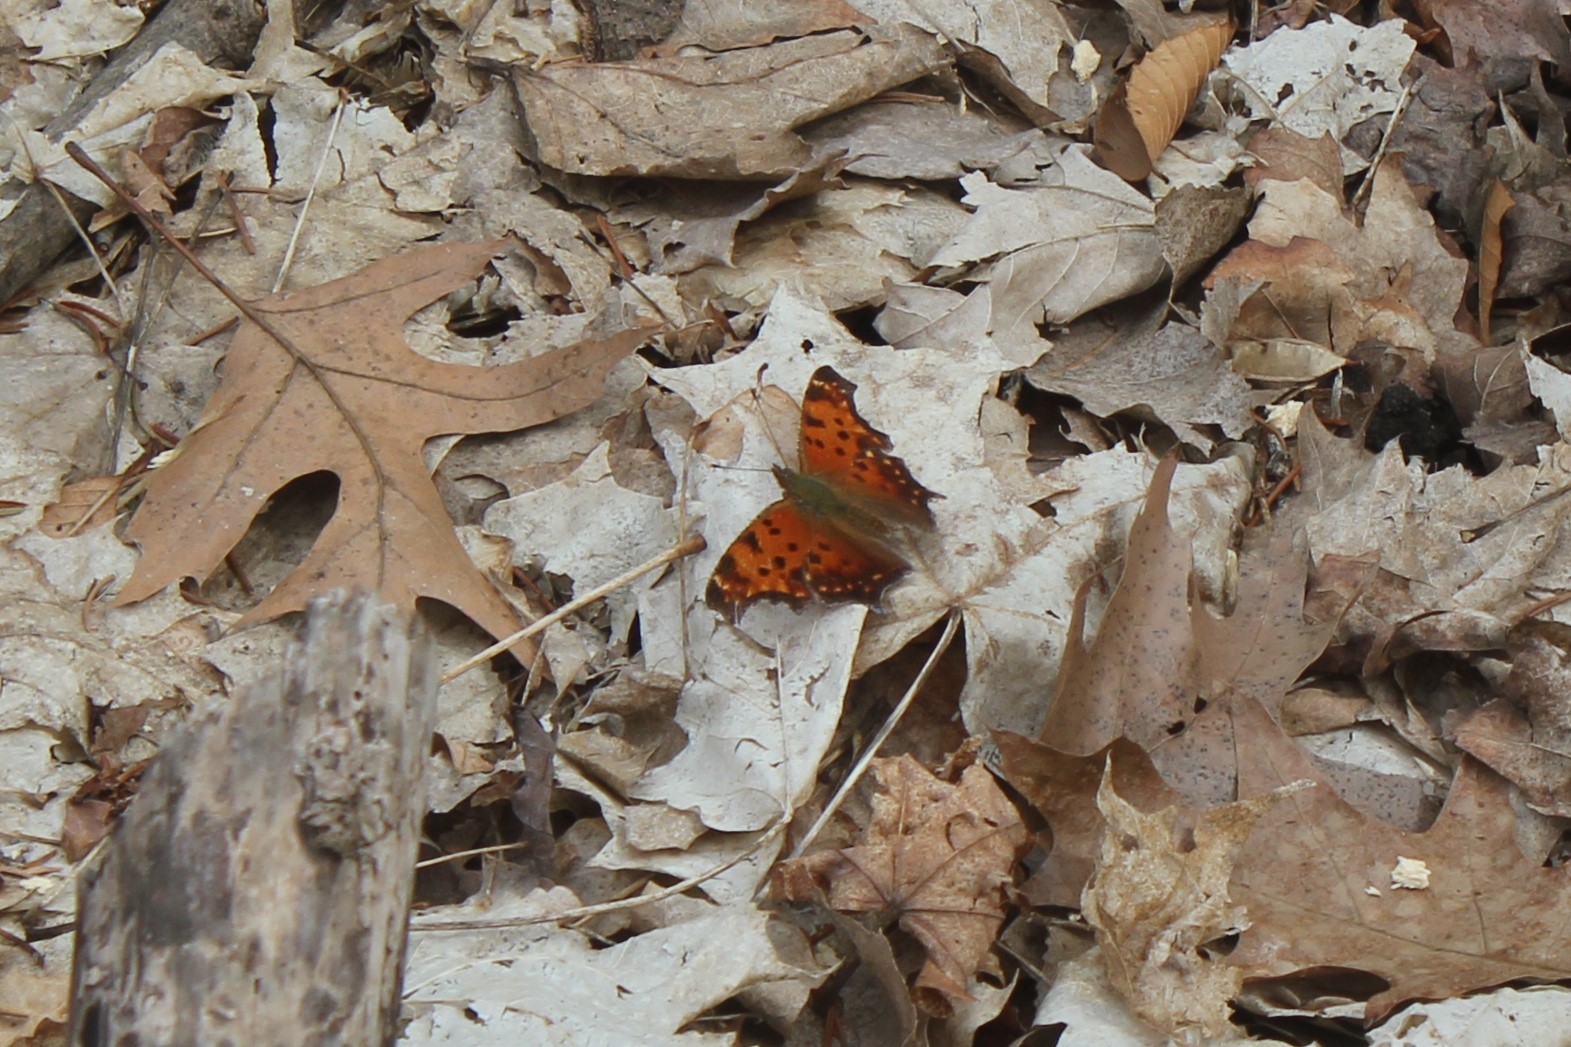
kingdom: Animalia
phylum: Arthropoda
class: Insecta
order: Lepidoptera
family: Nymphalidae
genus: Polygonia
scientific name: Polygonia comma
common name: Eastern comma
